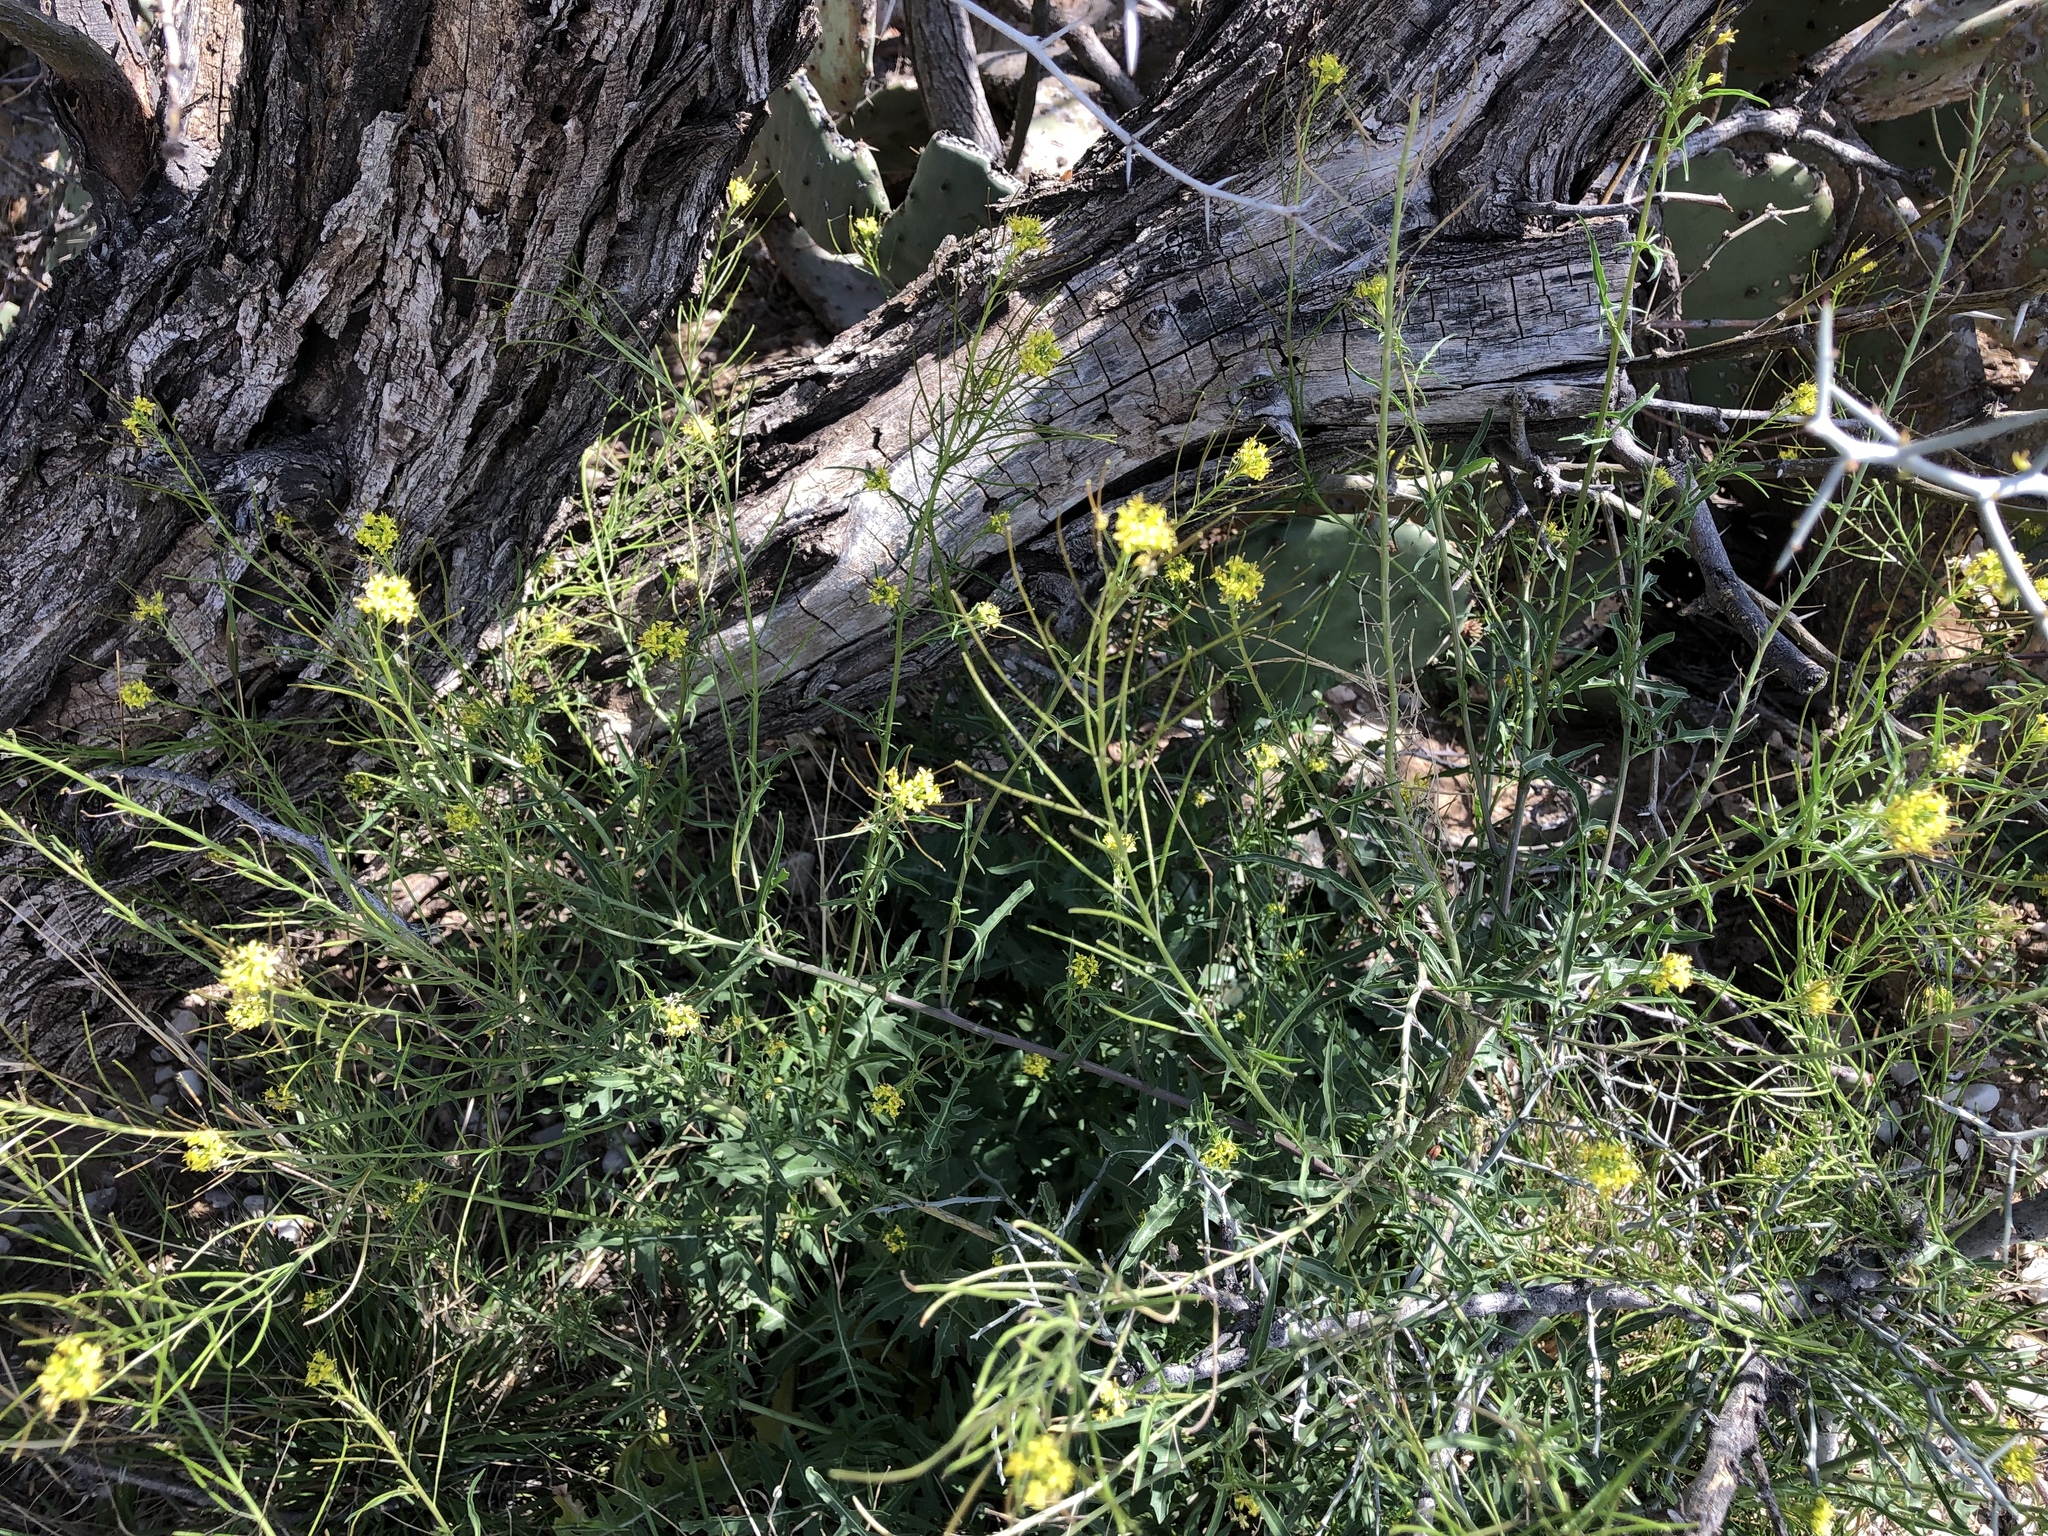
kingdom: Plantae
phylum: Tracheophyta
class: Magnoliopsida
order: Brassicales
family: Brassicaceae
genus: Sisymbrium
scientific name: Sisymbrium irio
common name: London rocket
